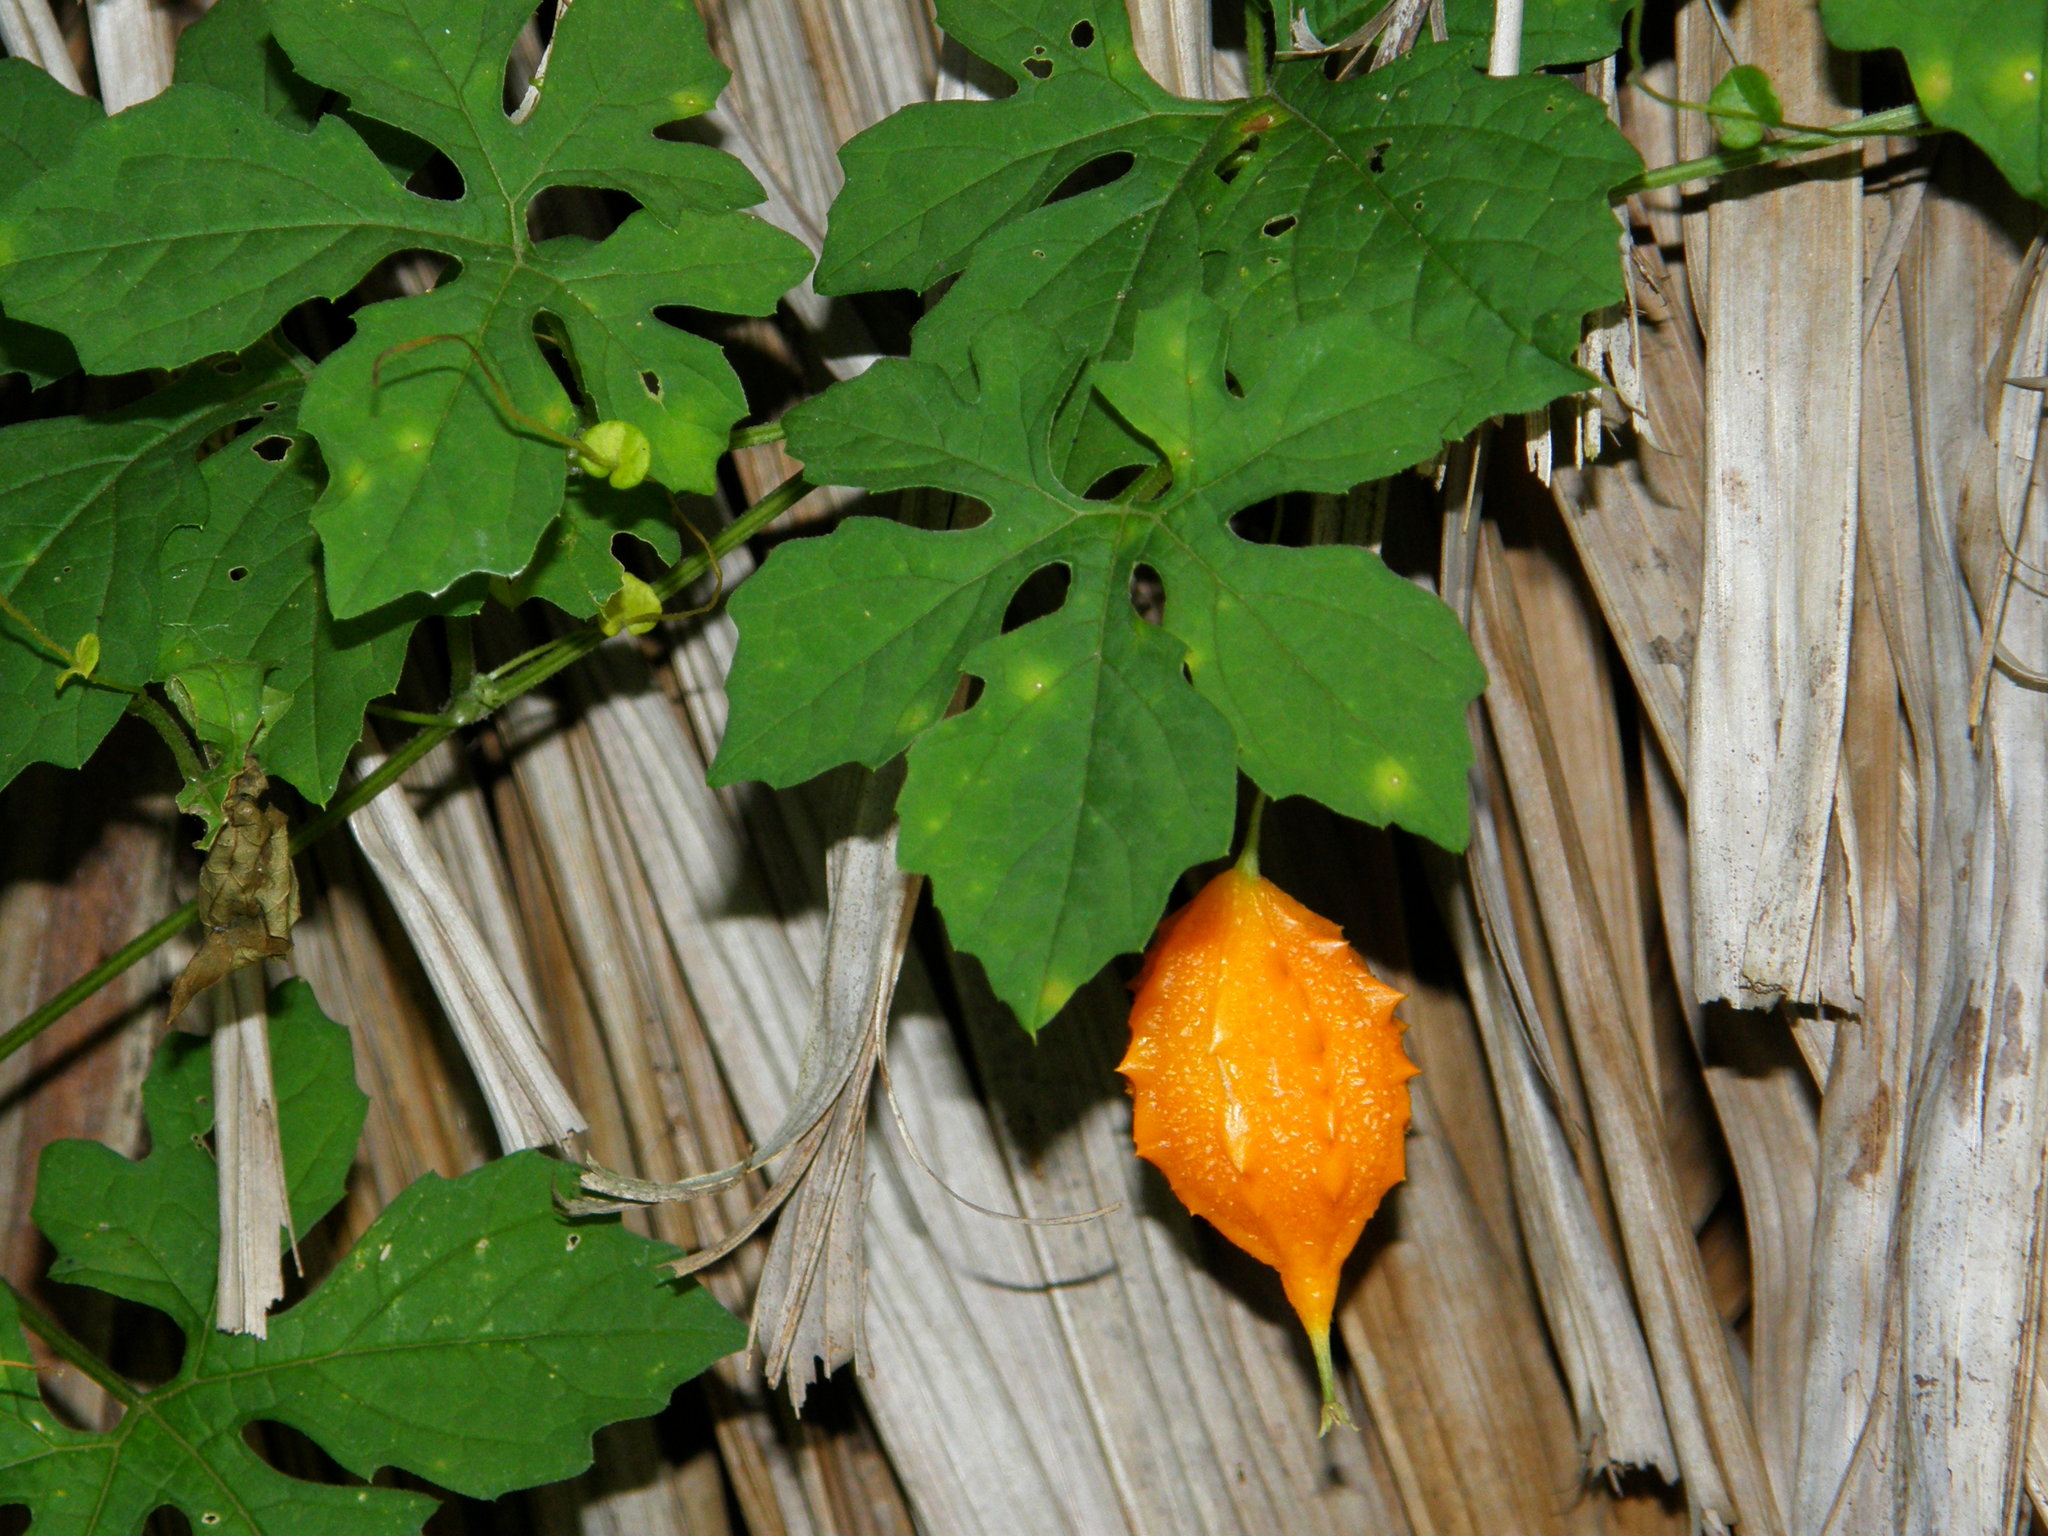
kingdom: Plantae
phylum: Tracheophyta
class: Magnoliopsida
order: Cucurbitales
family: Cucurbitaceae
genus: Momordica
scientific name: Momordica charantia
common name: Balsampear
